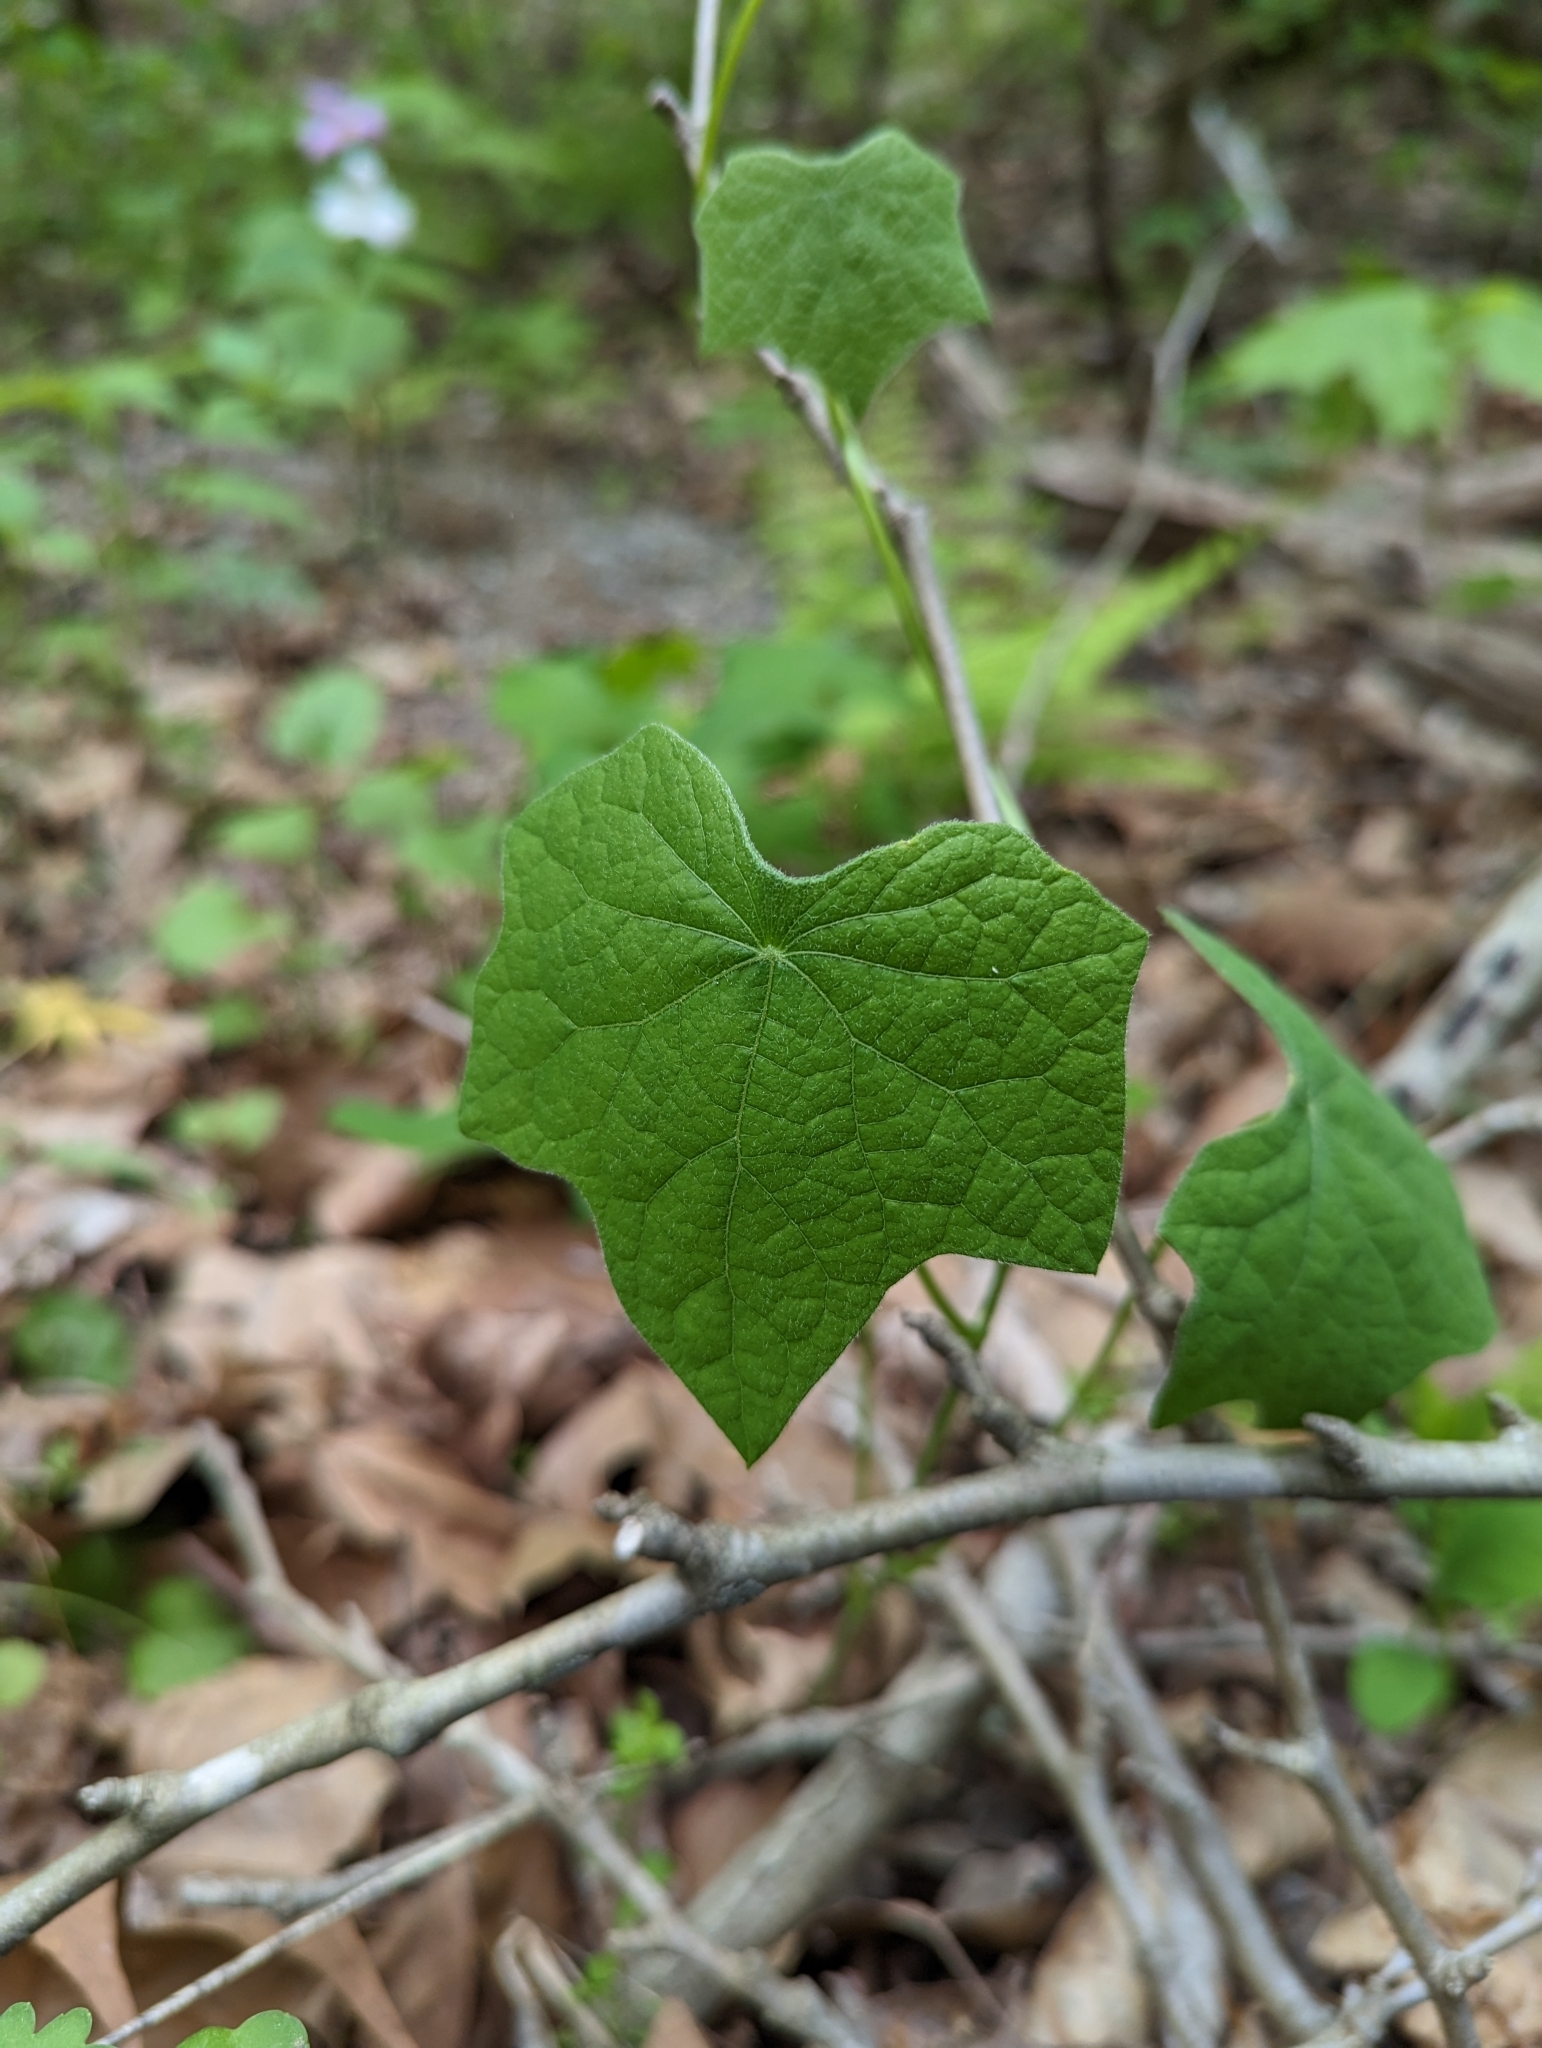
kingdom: Plantae
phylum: Tracheophyta
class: Magnoliopsida
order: Ranunculales
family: Menispermaceae
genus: Menispermum
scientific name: Menispermum canadense
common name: Moonseed
